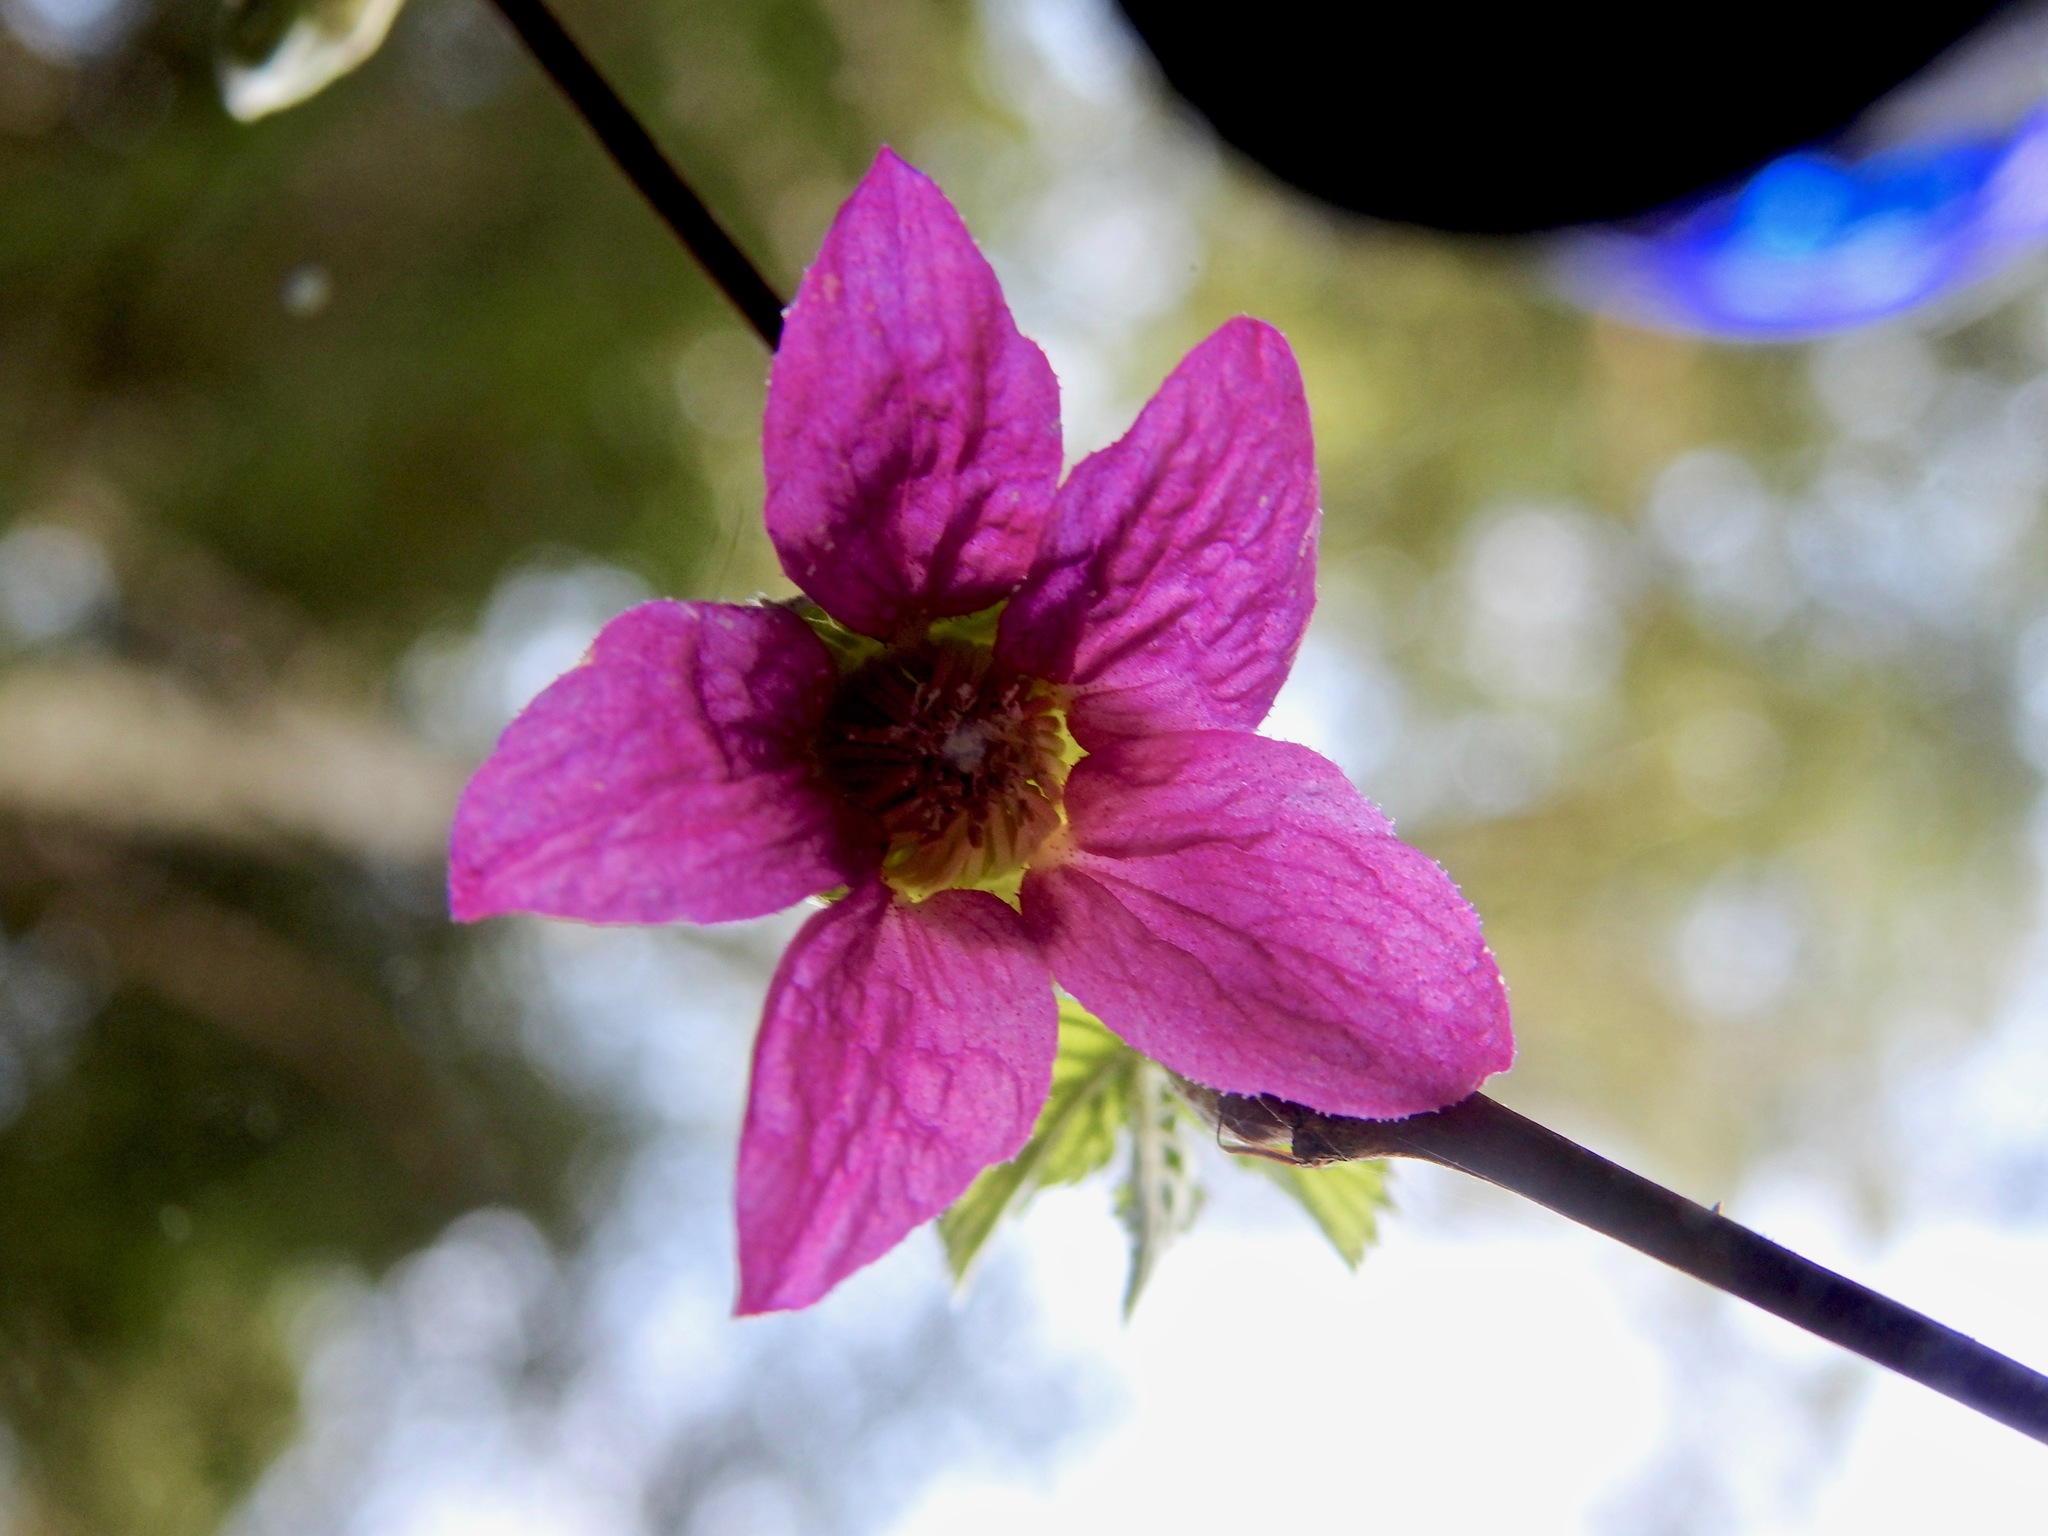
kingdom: Plantae
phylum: Tracheophyta
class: Magnoliopsida
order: Rosales
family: Rosaceae
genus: Rubus
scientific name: Rubus spectabilis
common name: Salmonberry
